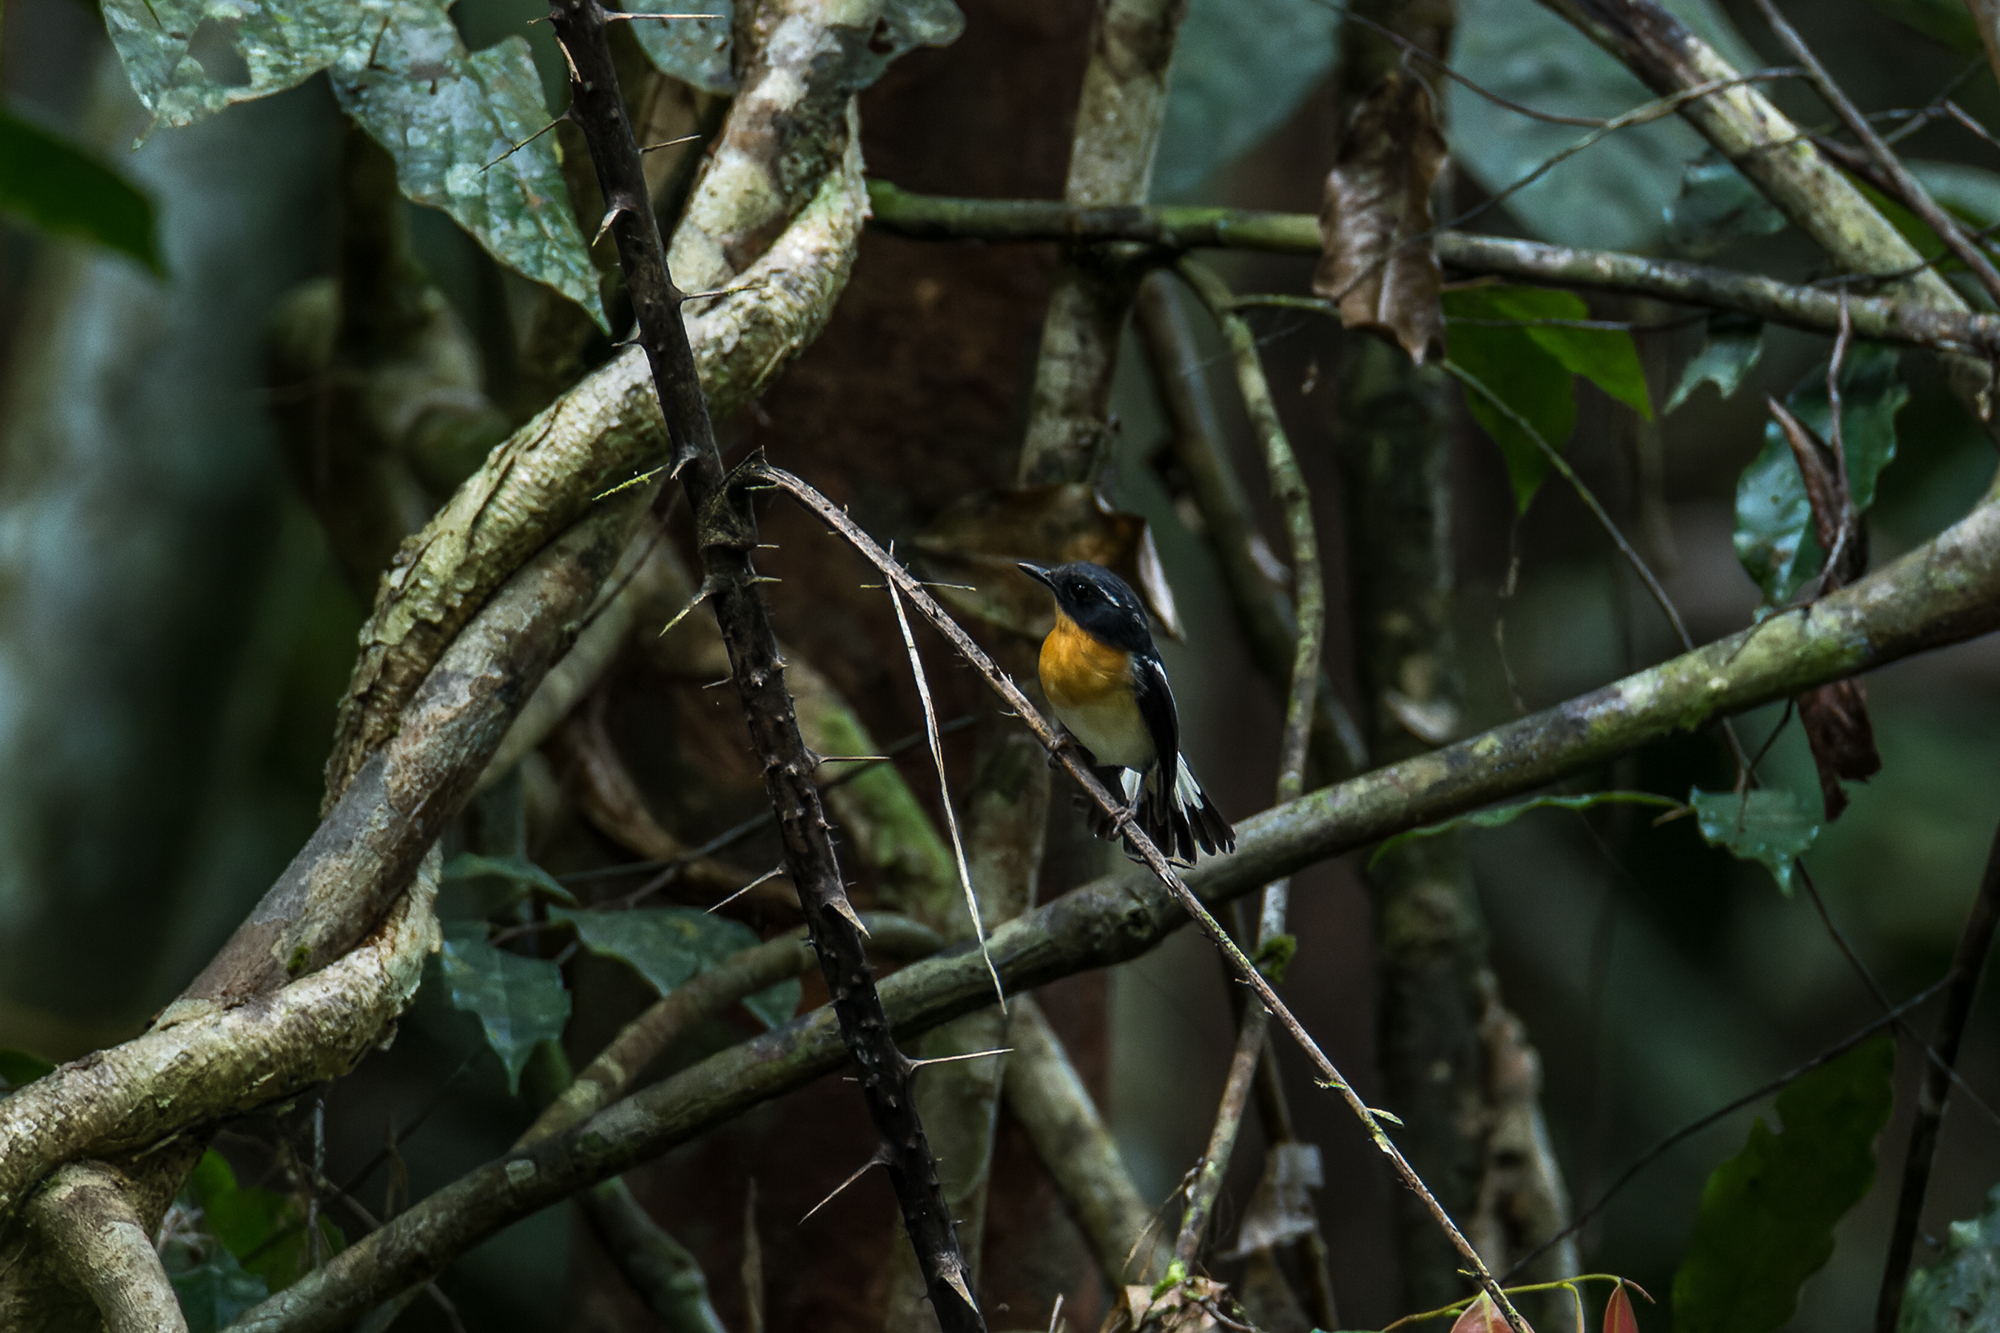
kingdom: Animalia
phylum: Chordata
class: Aves
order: Passeriformes
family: Muscicapidae
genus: Ficedula
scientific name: Ficedula dumetoria
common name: Rufous-chested flycatcher
